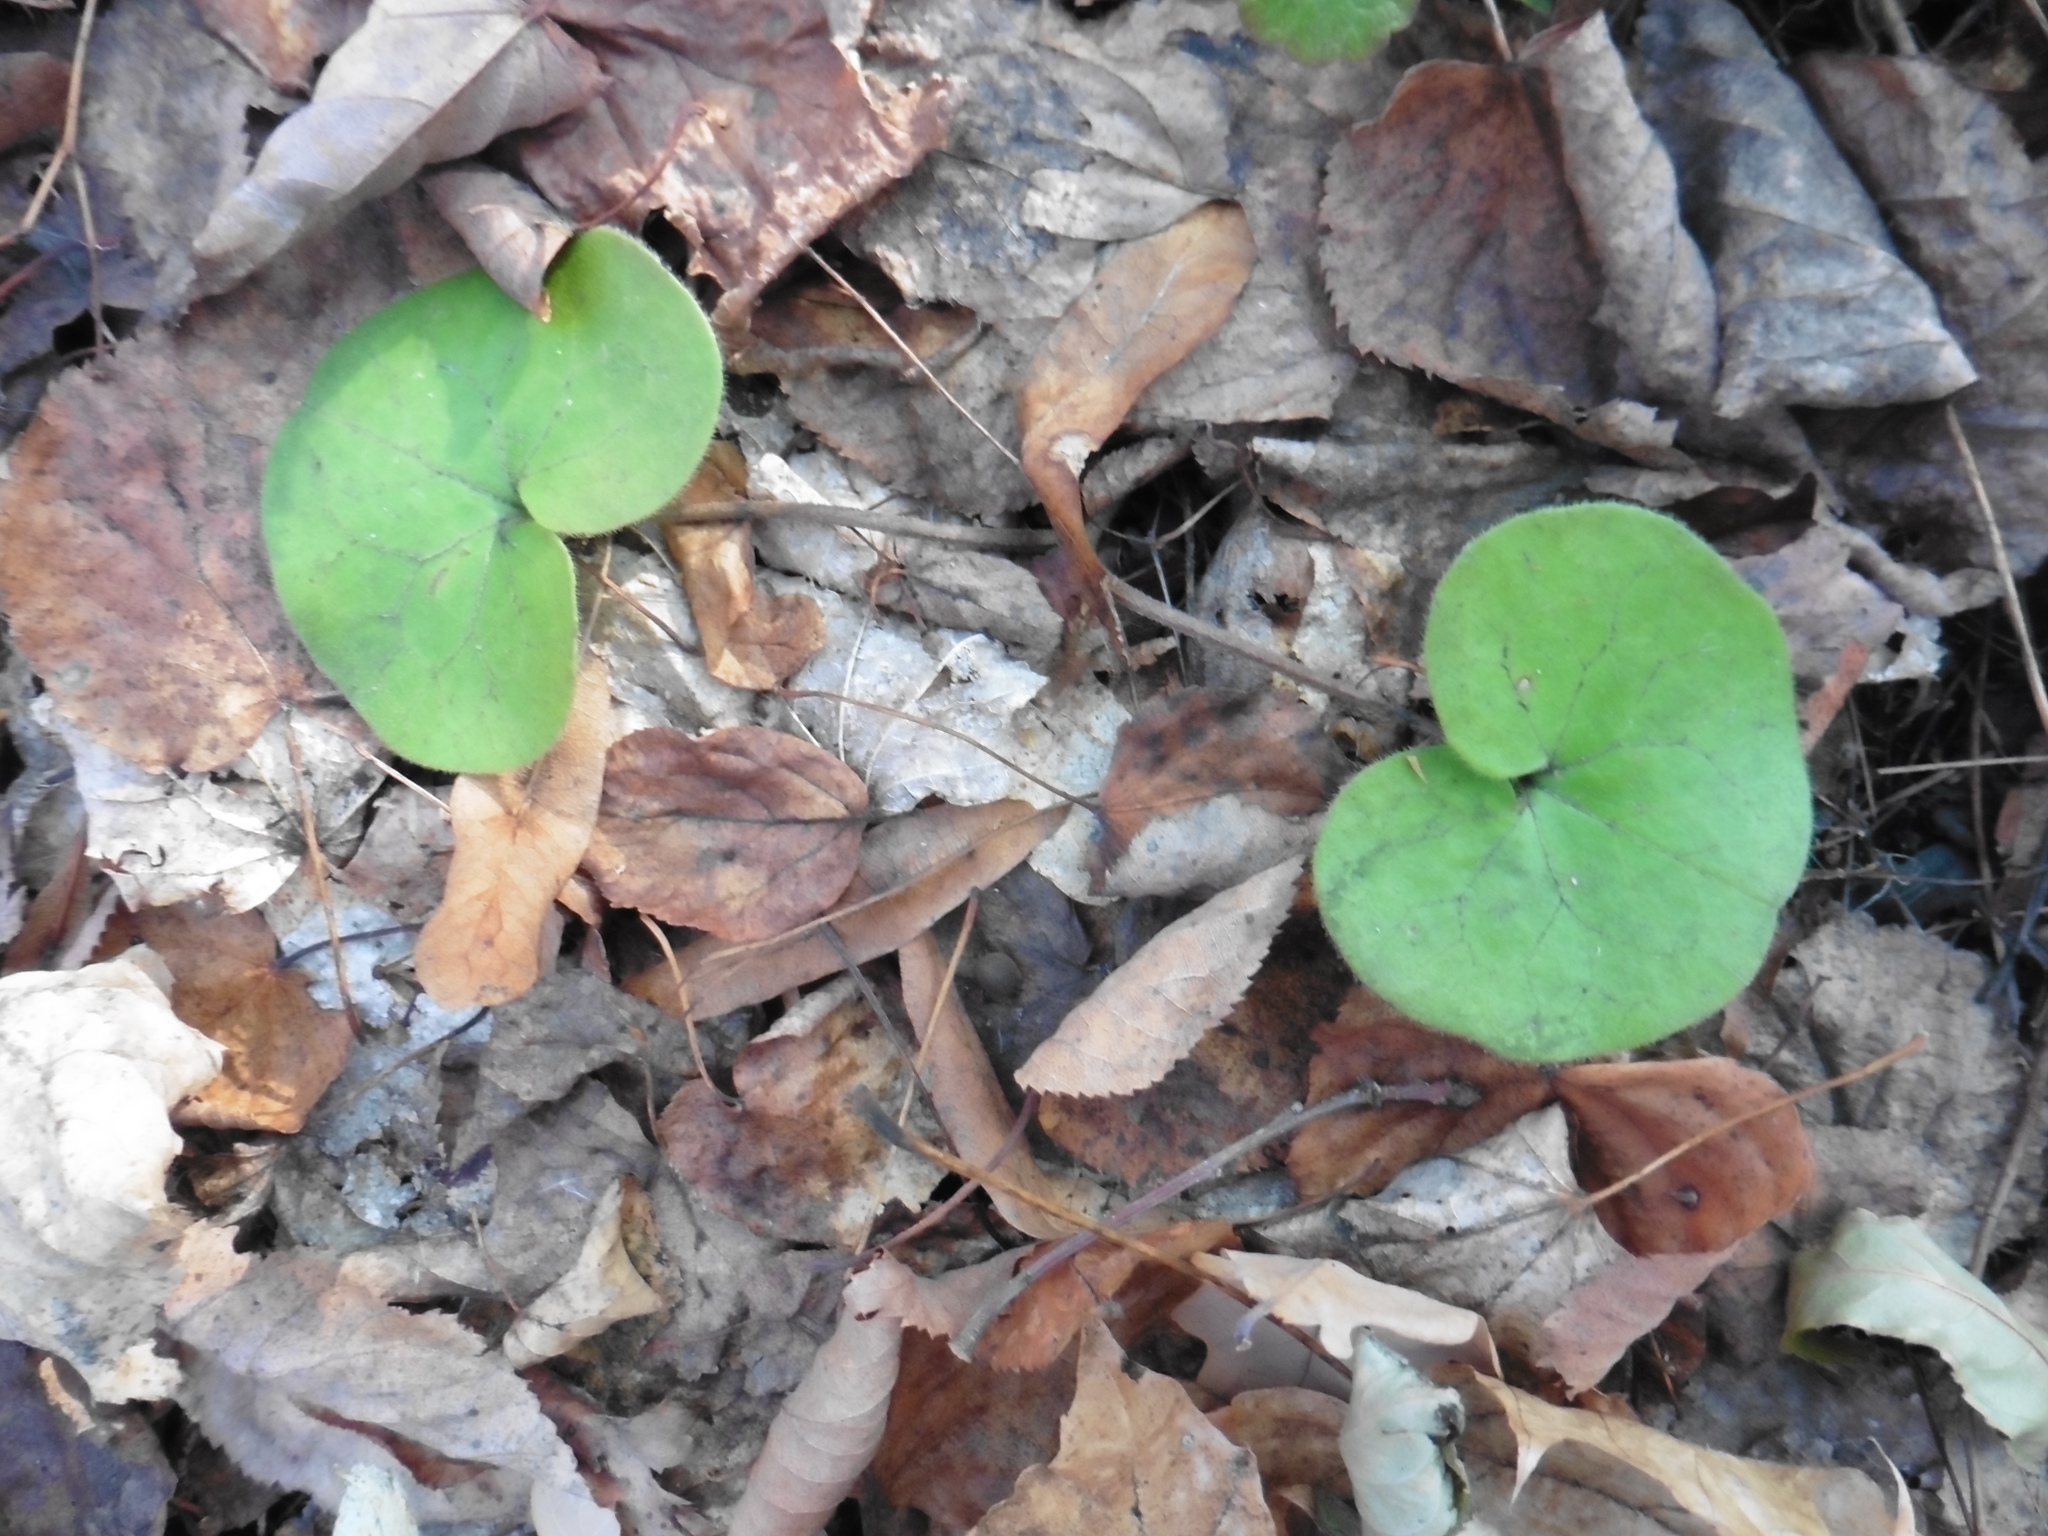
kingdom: Plantae
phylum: Tracheophyta
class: Magnoliopsida
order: Piperales
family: Aristolochiaceae
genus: Asarum
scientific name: Asarum europaeum
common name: Asarabacca
